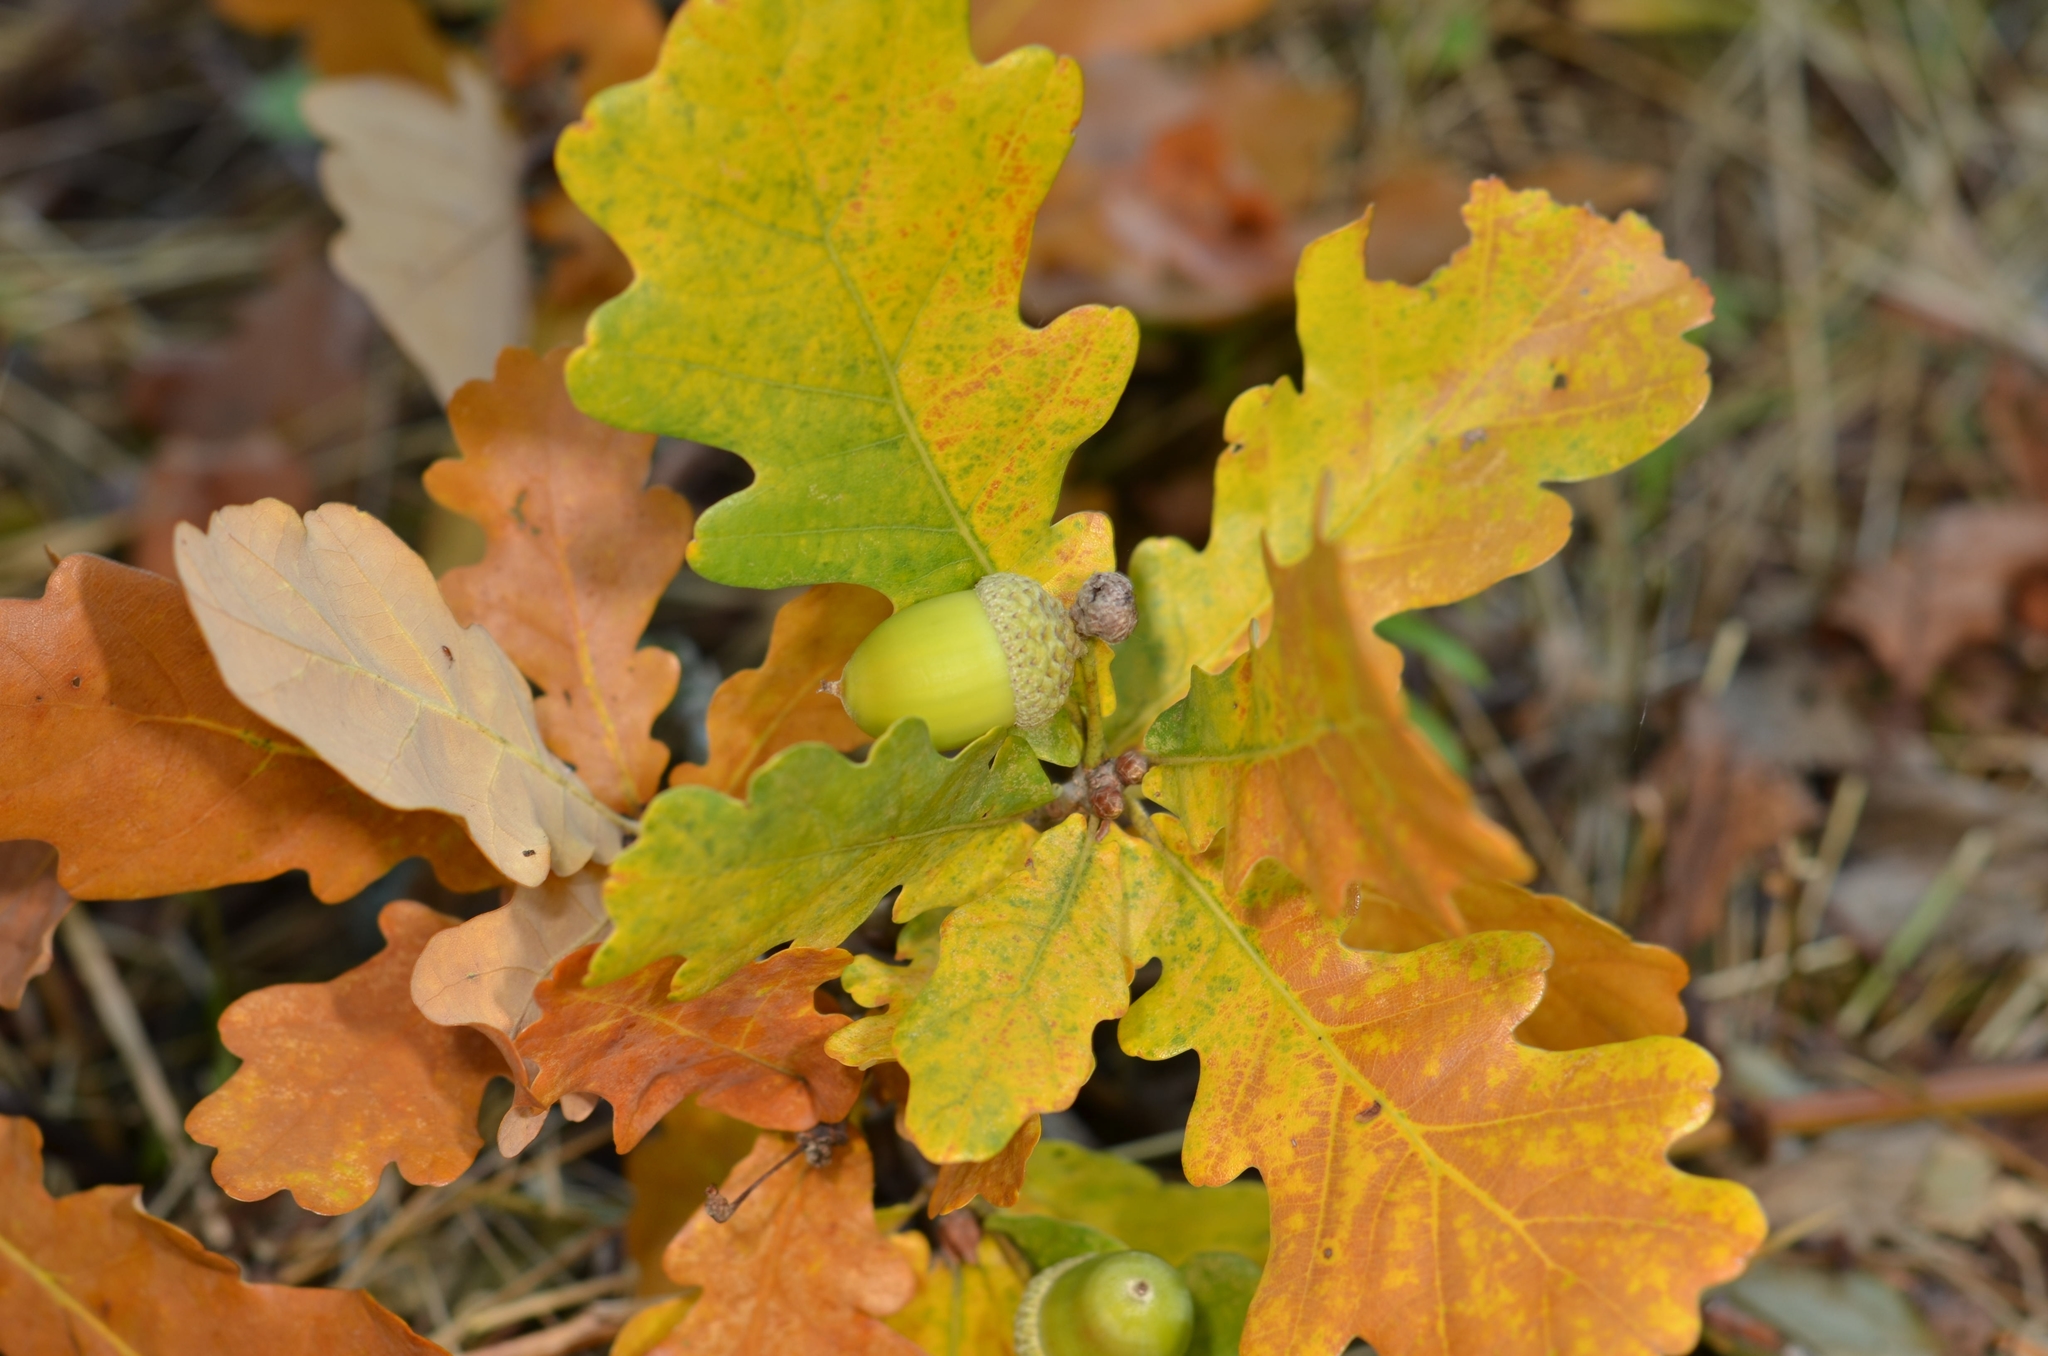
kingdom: Plantae
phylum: Tracheophyta
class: Magnoliopsida
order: Fagales
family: Fagaceae
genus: Quercus
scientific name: Quercus robur
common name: Pedunculate oak
